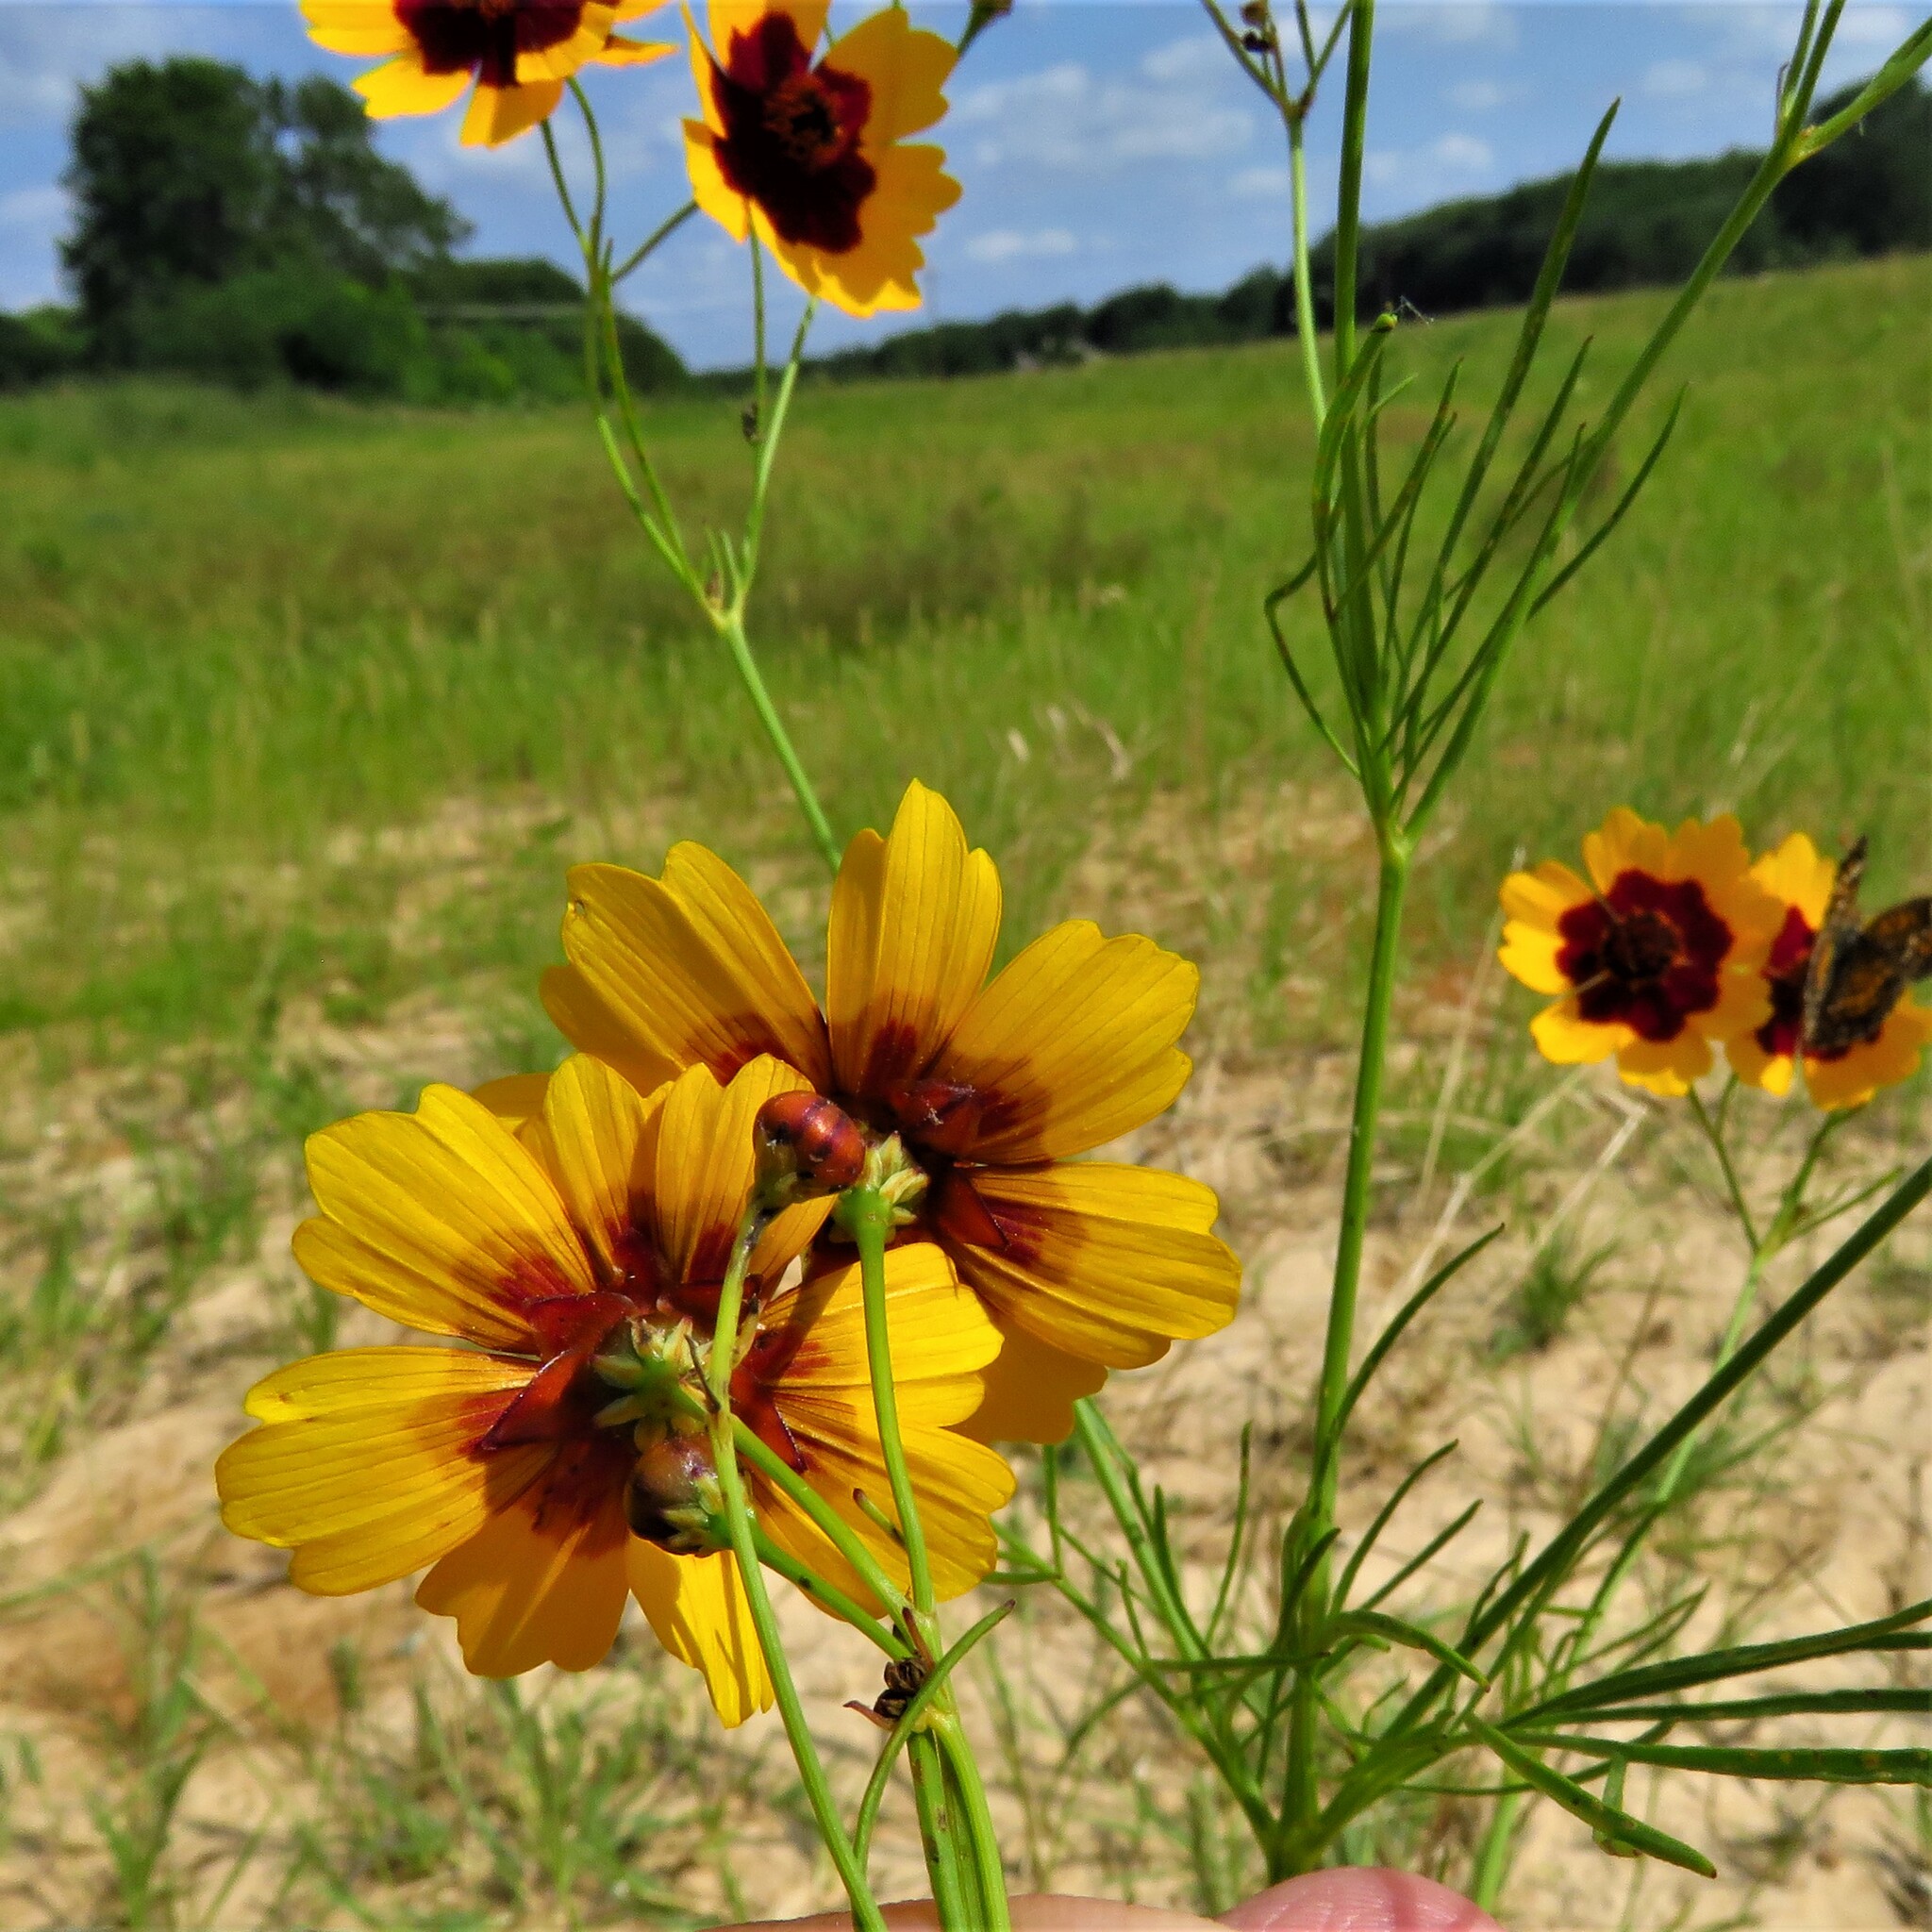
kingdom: Plantae
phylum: Tracheophyta
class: Magnoliopsida
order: Asterales
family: Asteraceae
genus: Coreopsis
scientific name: Coreopsis tinctoria
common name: Garden tickseed
